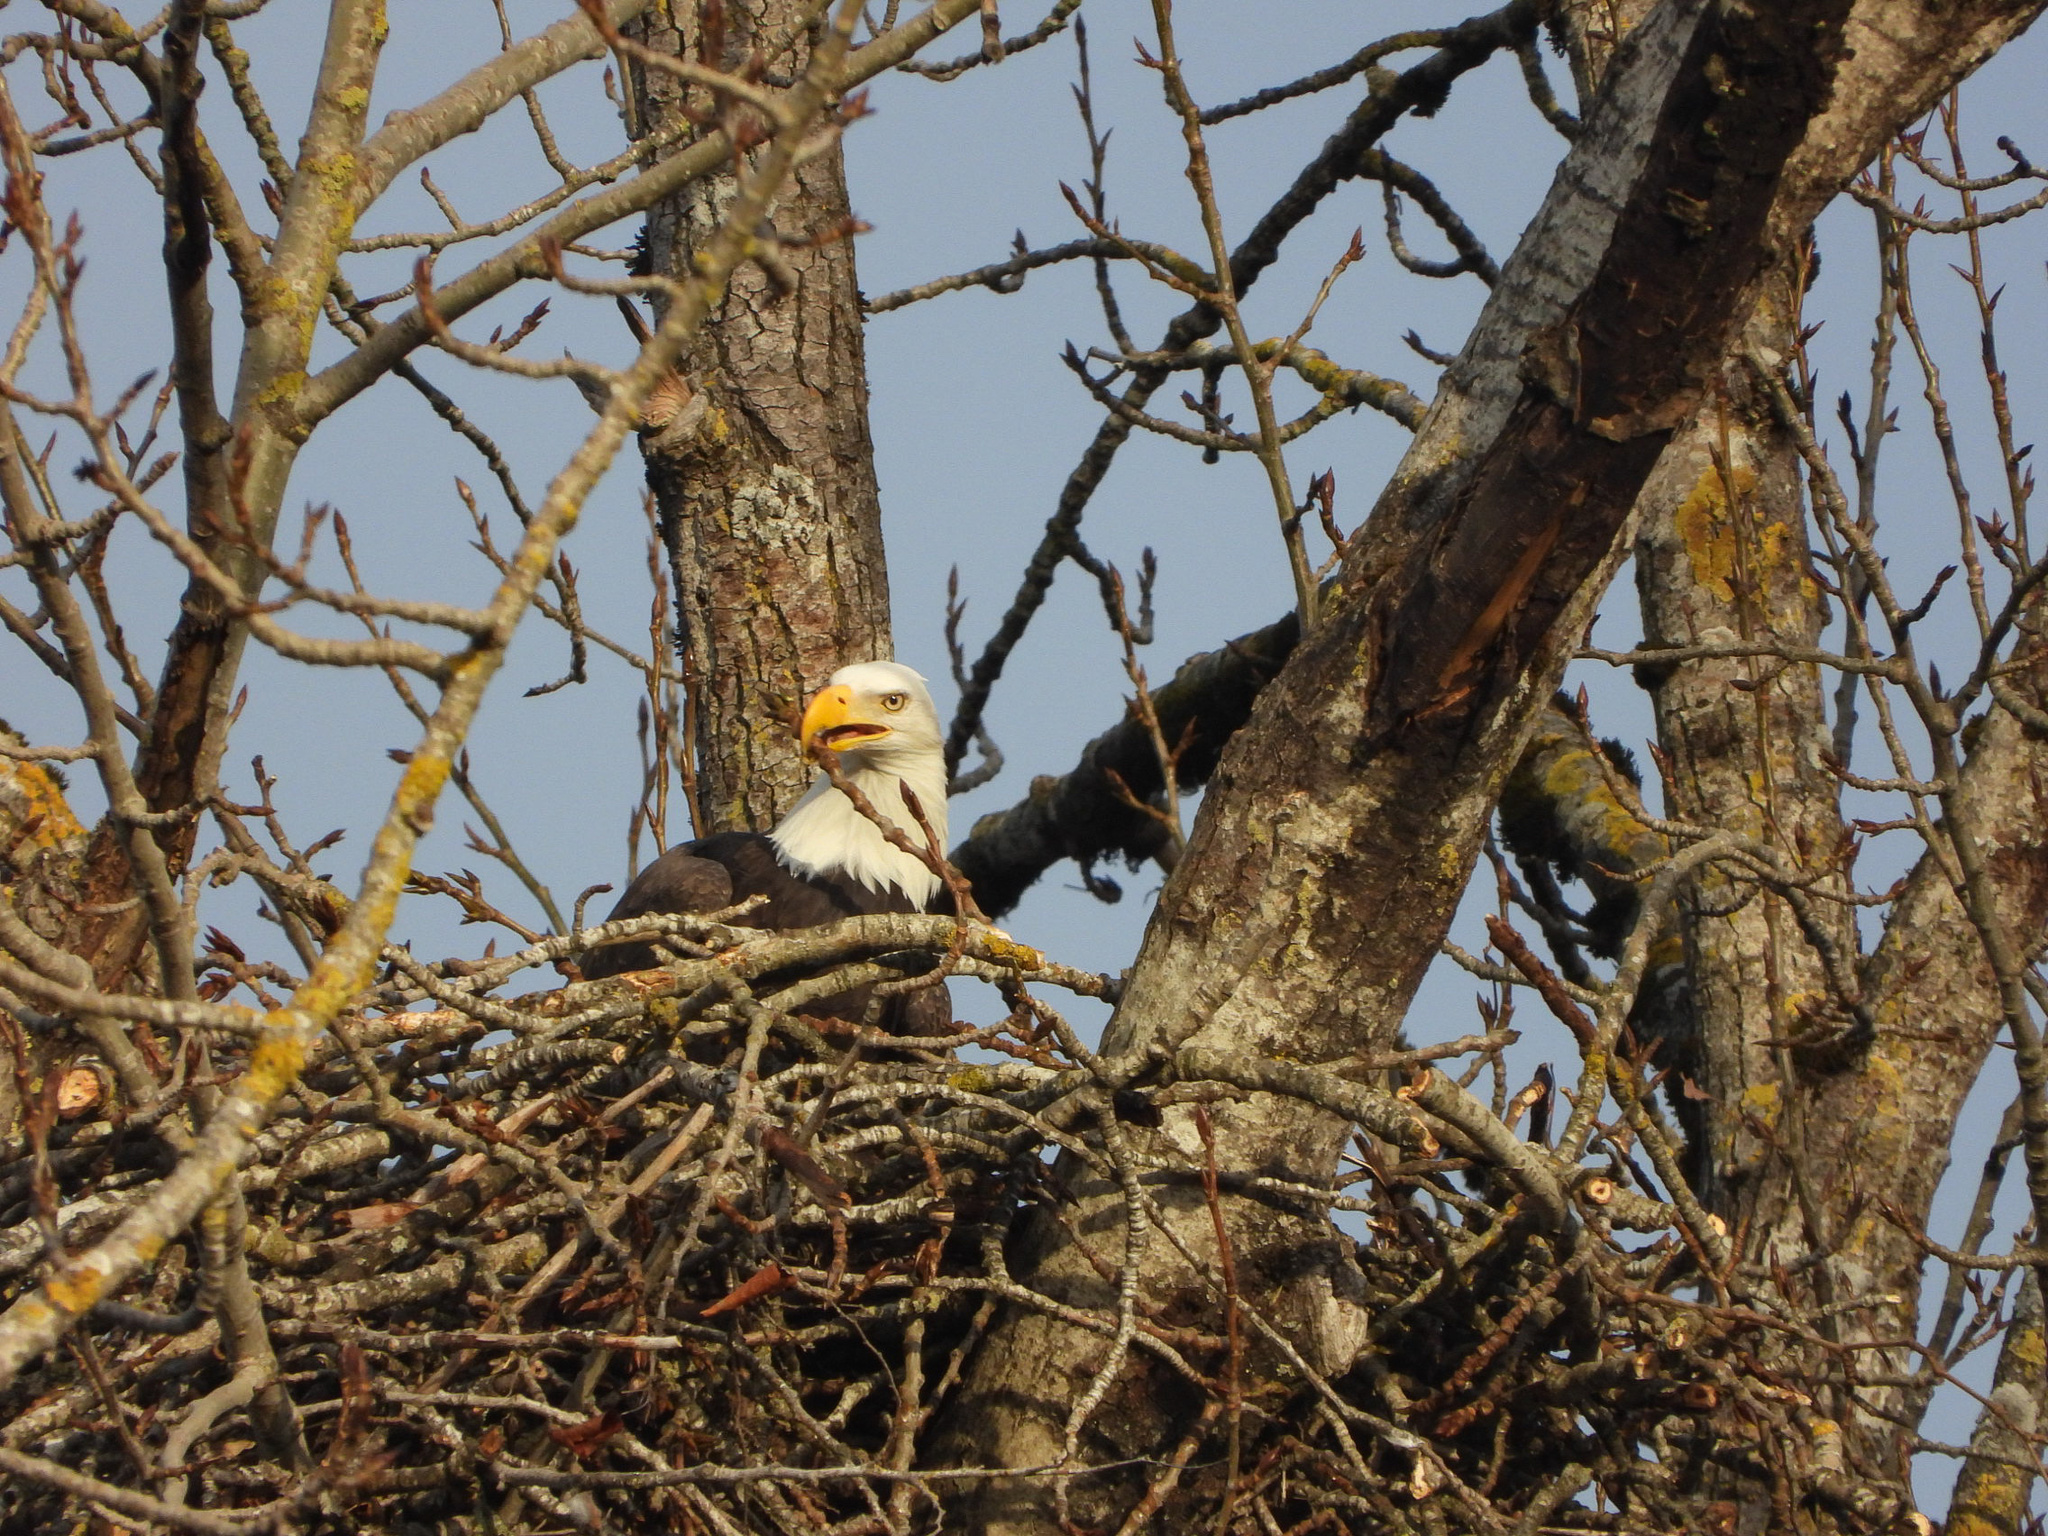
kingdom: Animalia
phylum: Chordata
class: Aves
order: Accipitriformes
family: Accipitridae
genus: Haliaeetus
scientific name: Haliaeetus leucocephalus
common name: Bald eagle
